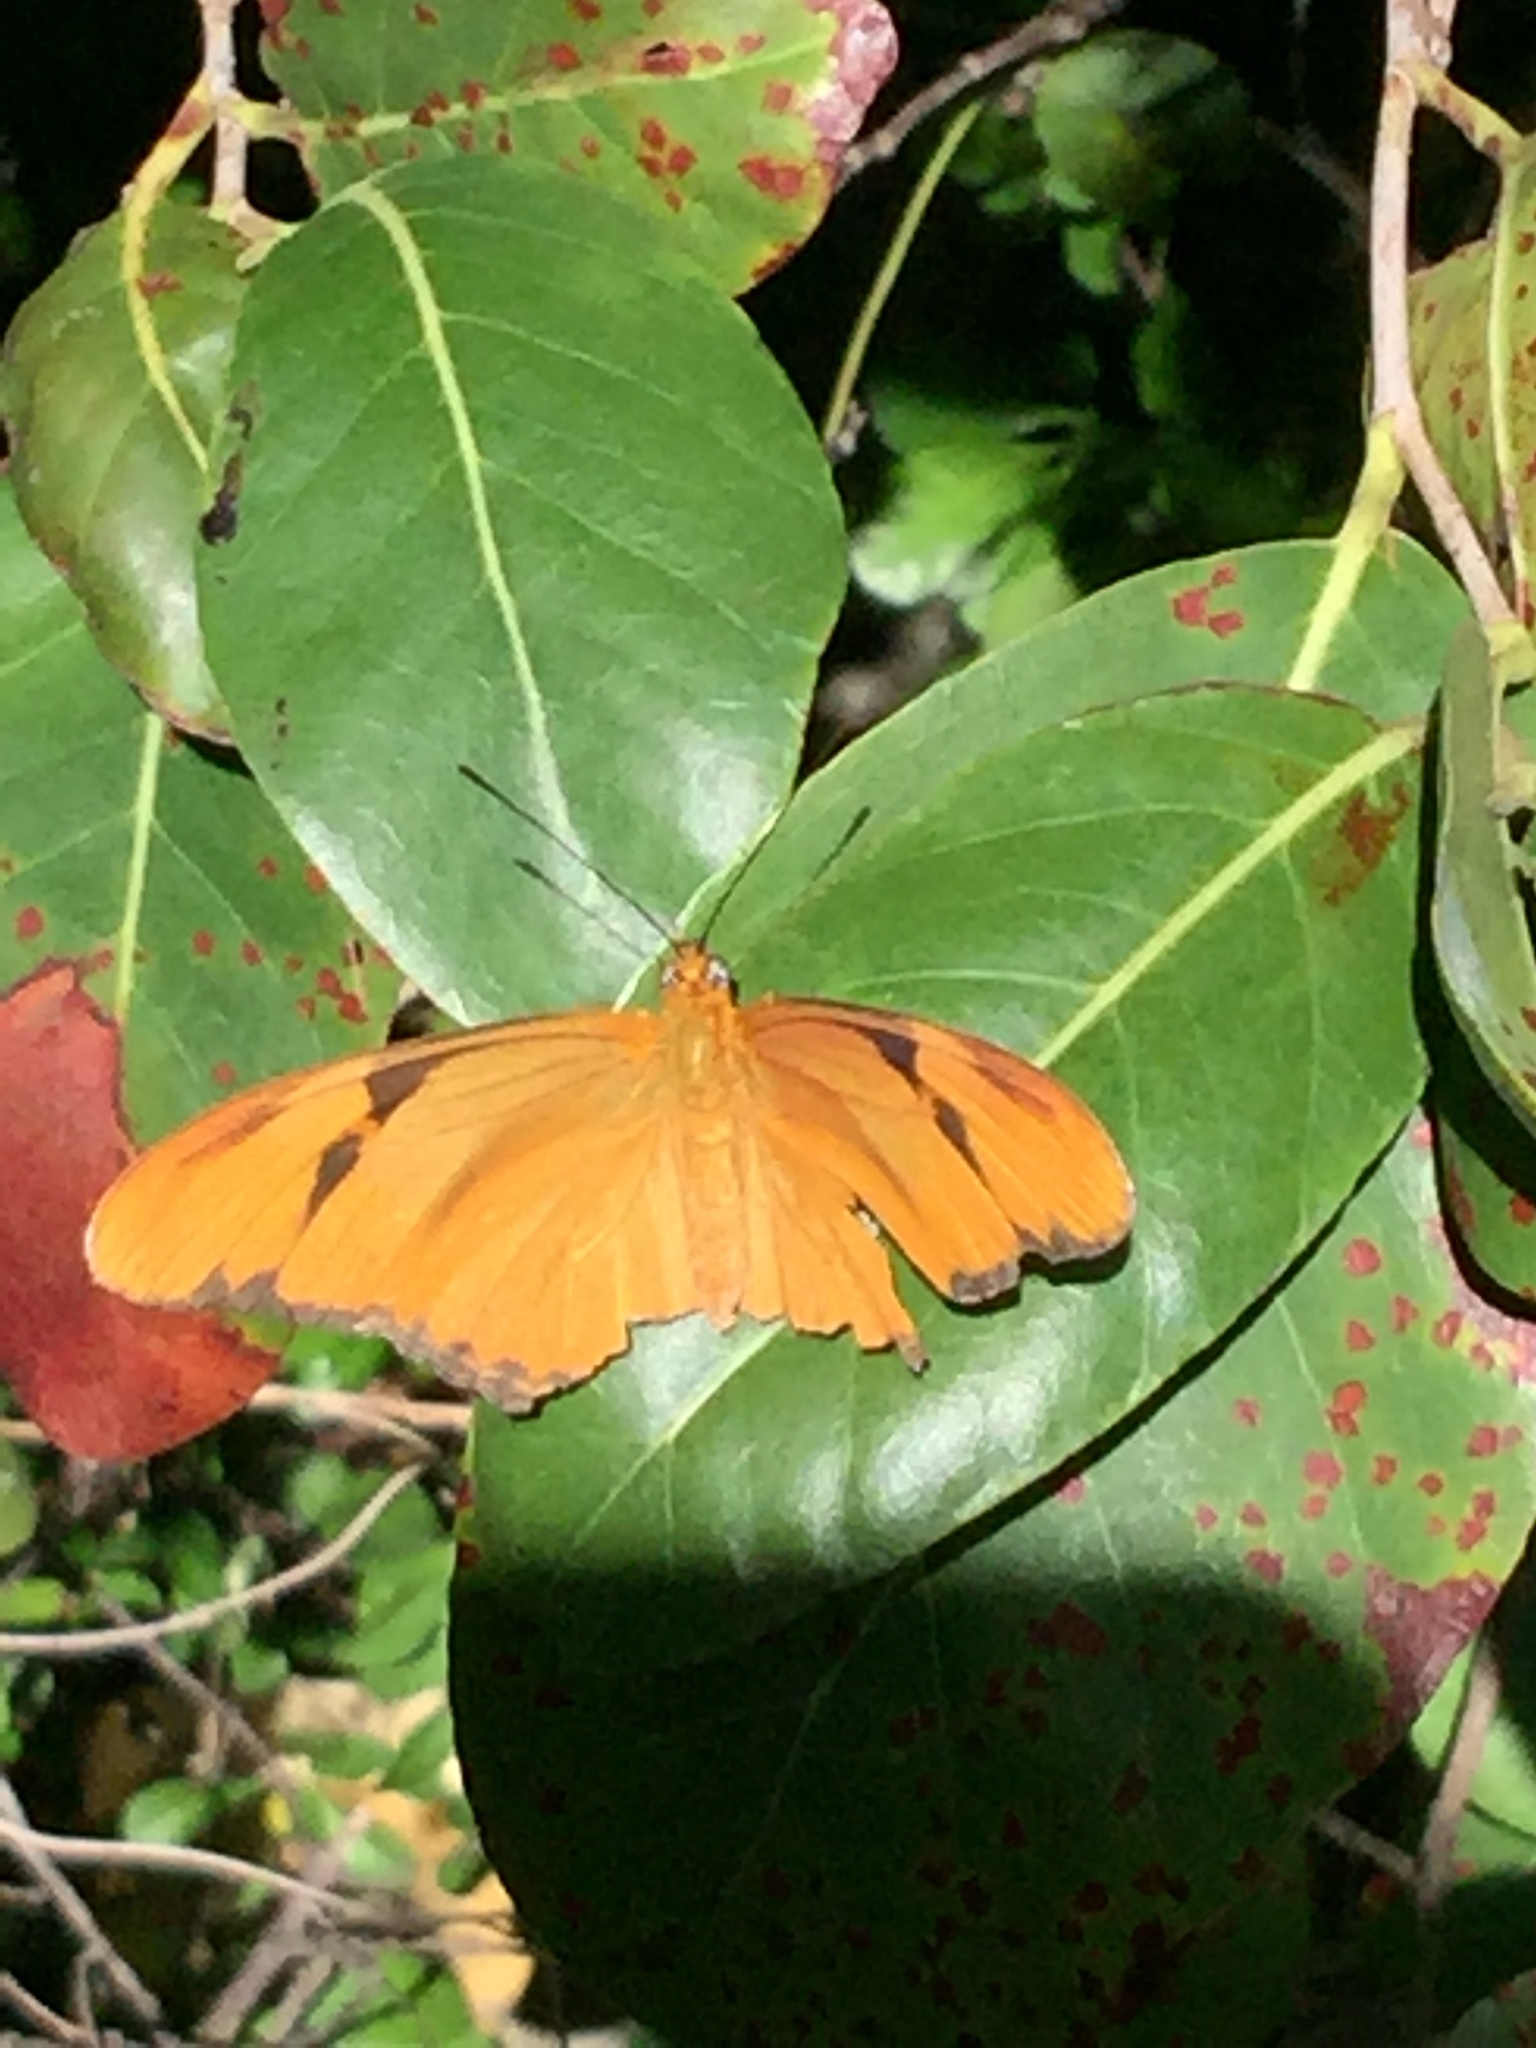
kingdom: Animalia
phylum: Arthropoda
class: Insecta
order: Lepidoptera
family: Nymphalidae
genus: Dryas
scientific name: Dryas iulia
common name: Flambeau
